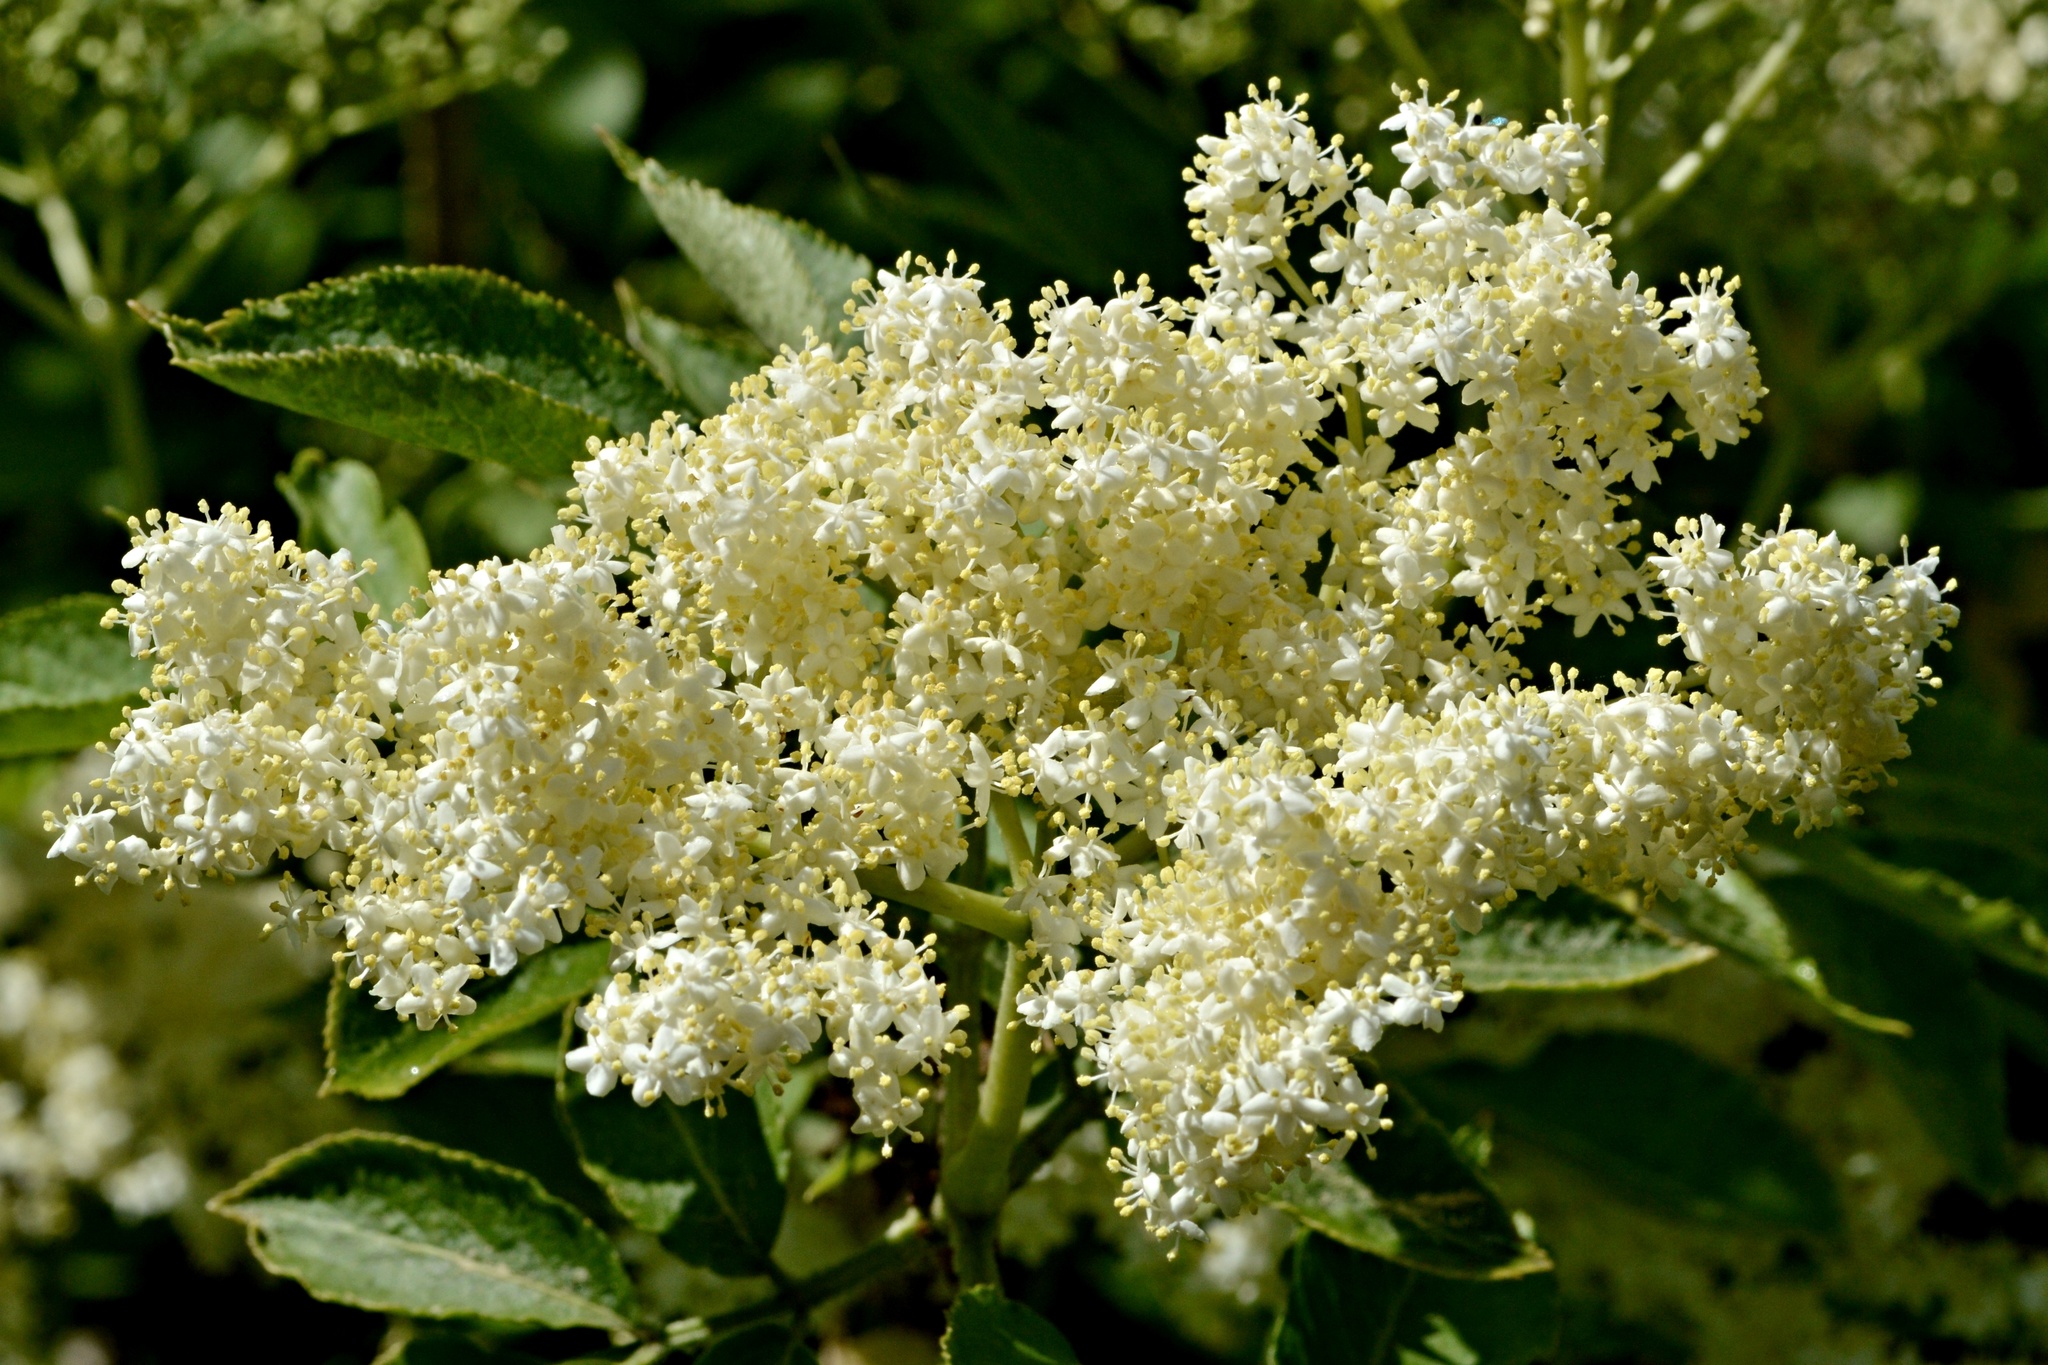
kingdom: Plantae
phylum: Tracheophyta
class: Magnoliopsida
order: Dipsacales
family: Viburnaceae
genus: Sambucus
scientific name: Sambucus nigra
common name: Elder
